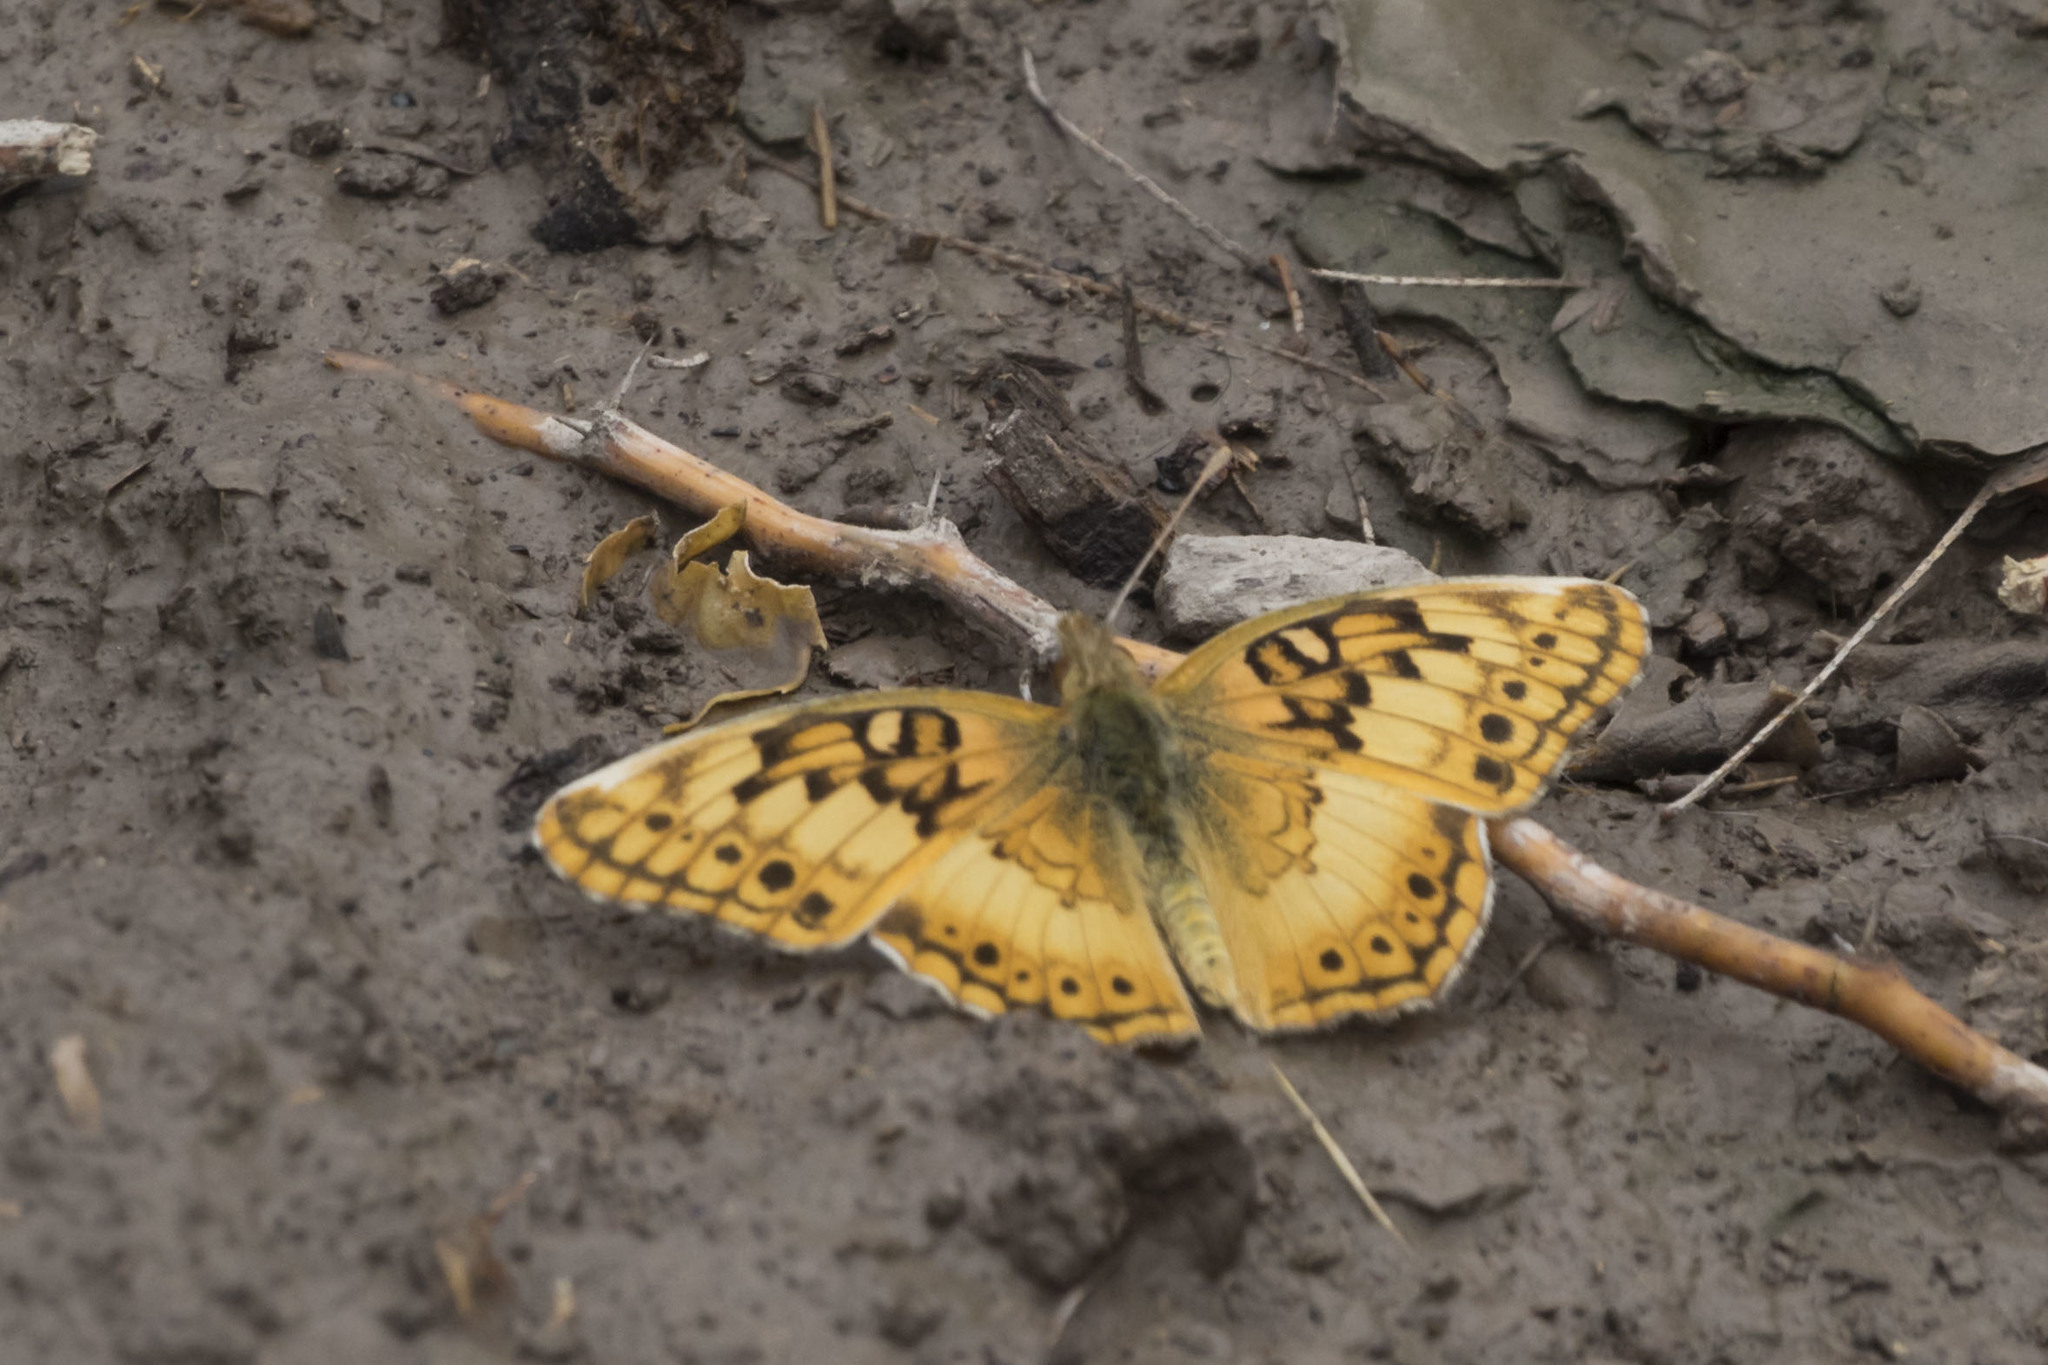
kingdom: Animalia
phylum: Arthropoda
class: Insecta
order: Lepidoptera
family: Nymphalidae
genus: Euptoieta
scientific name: Euptoieta hortensia
